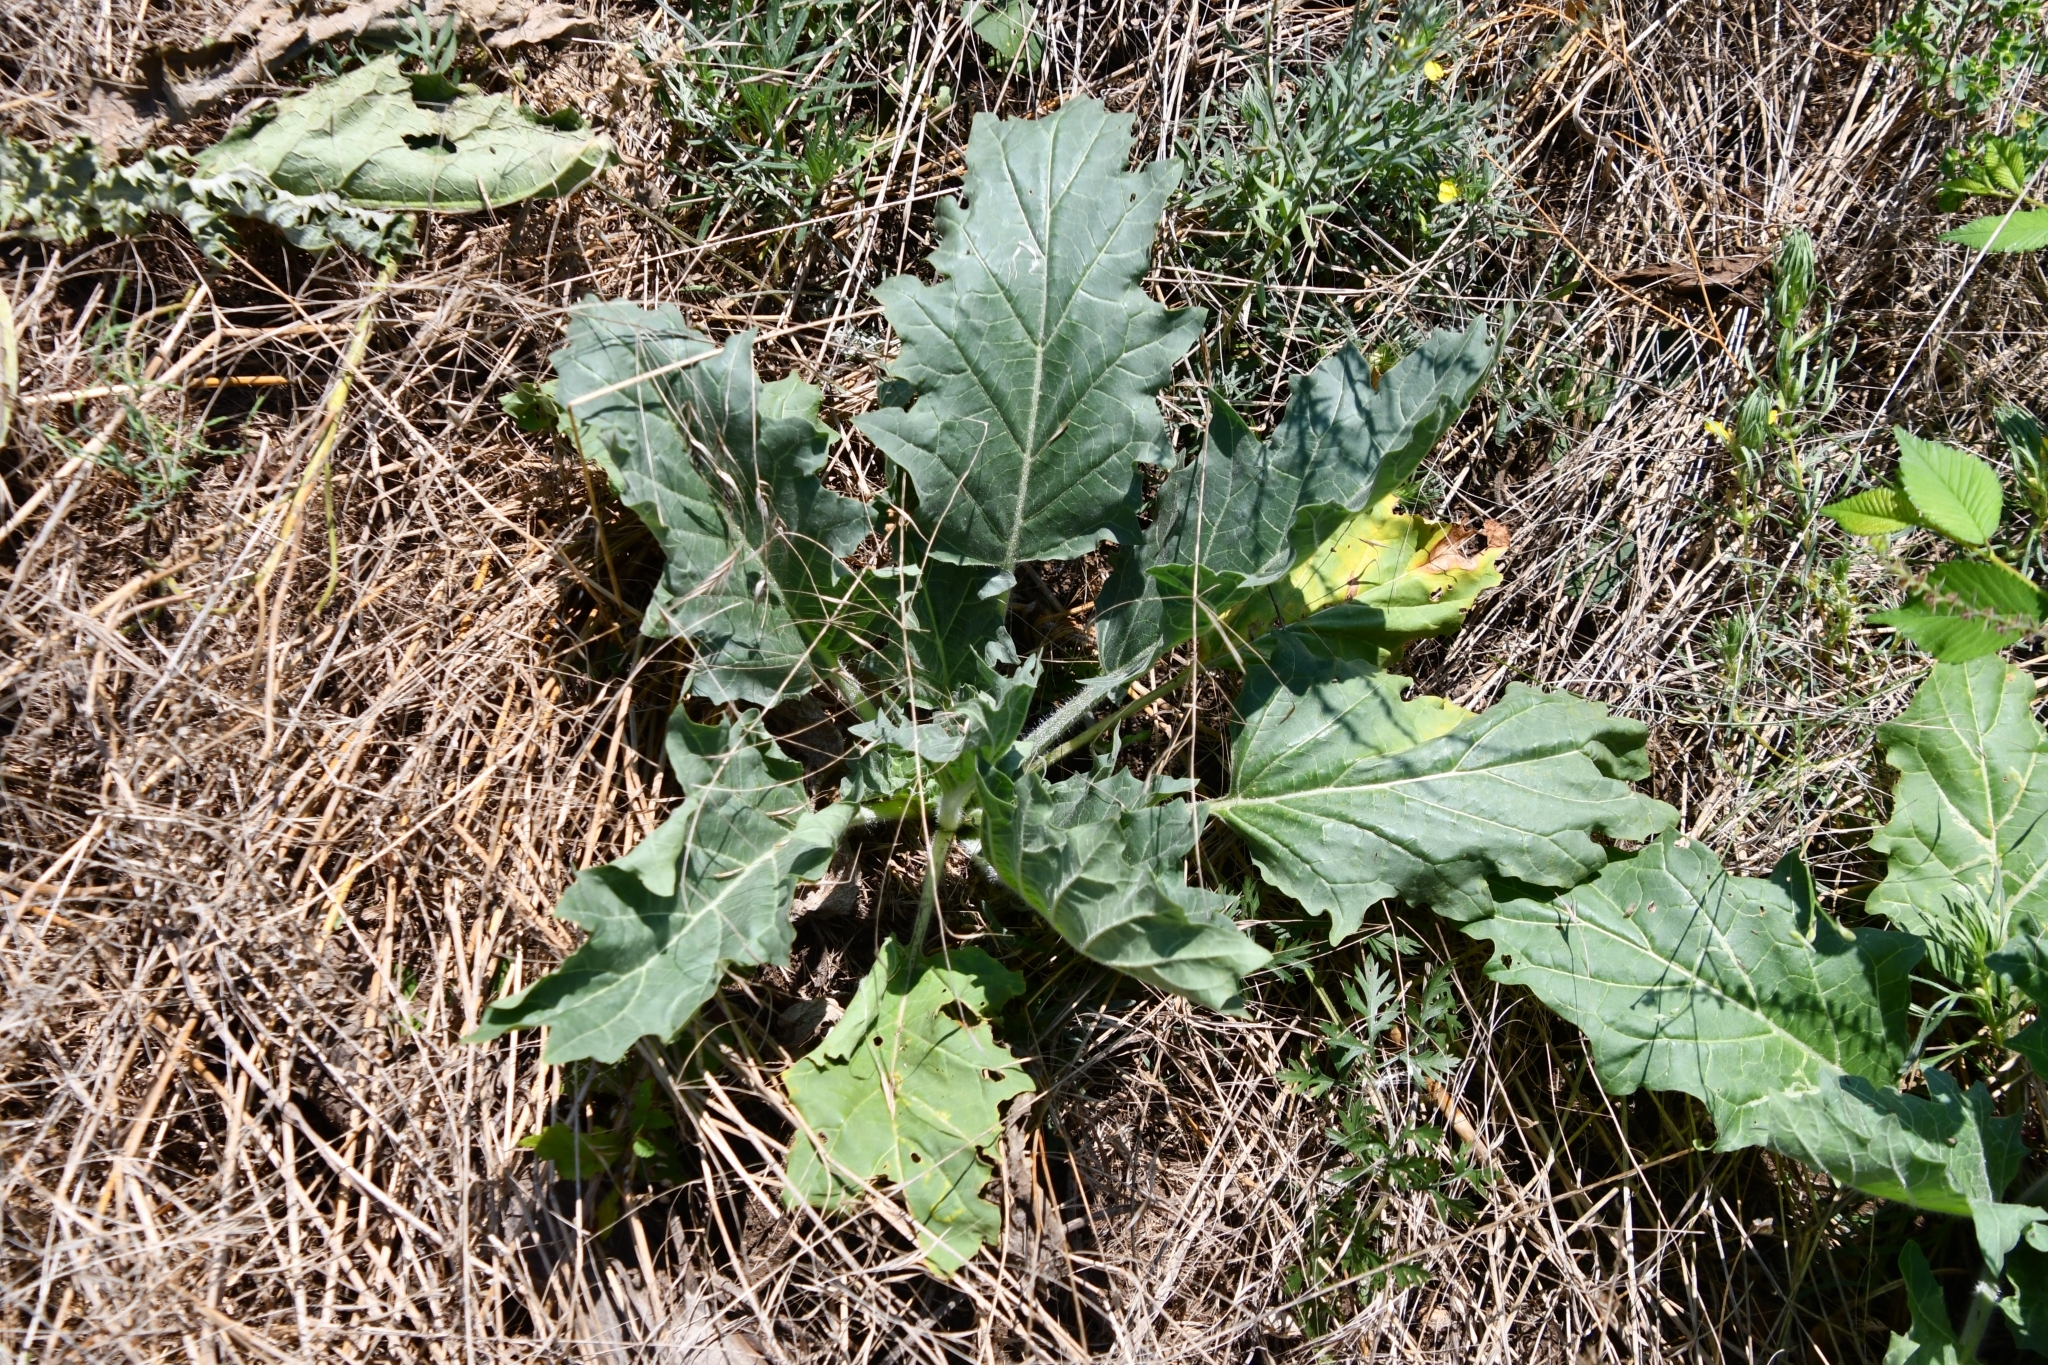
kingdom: Plantae
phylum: Tracheophyta
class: Magnoliopsida
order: Solanales
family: Solanaceae
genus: Hyoscyamus
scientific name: Hyoscyamus niger
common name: Henbane
